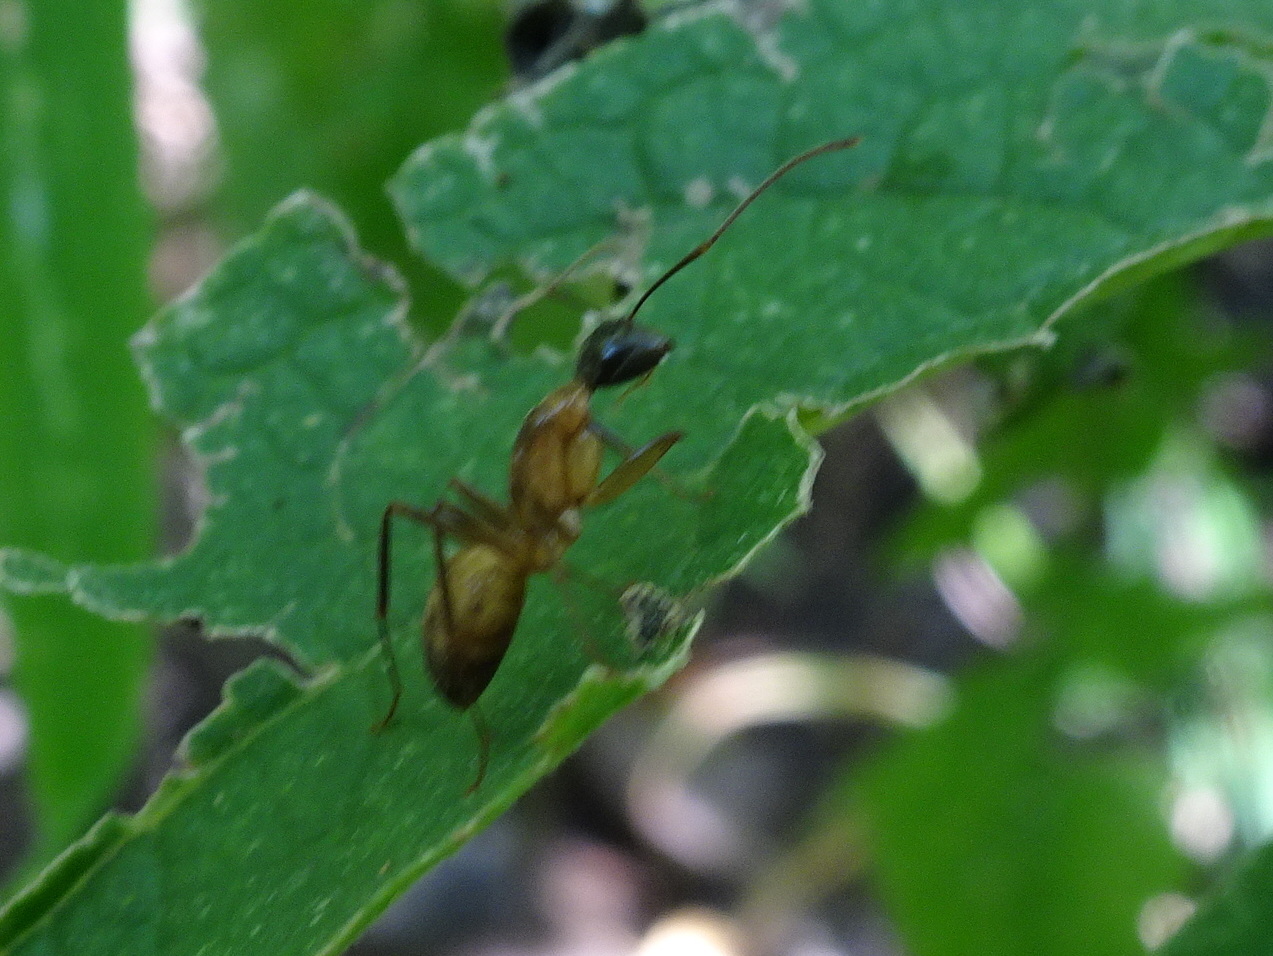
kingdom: Animalia
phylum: Arthropoda
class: Insecta
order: Hymenoptera
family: Formicidae
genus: Camponotus
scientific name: Camponotus americanus
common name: American carpenter ant
